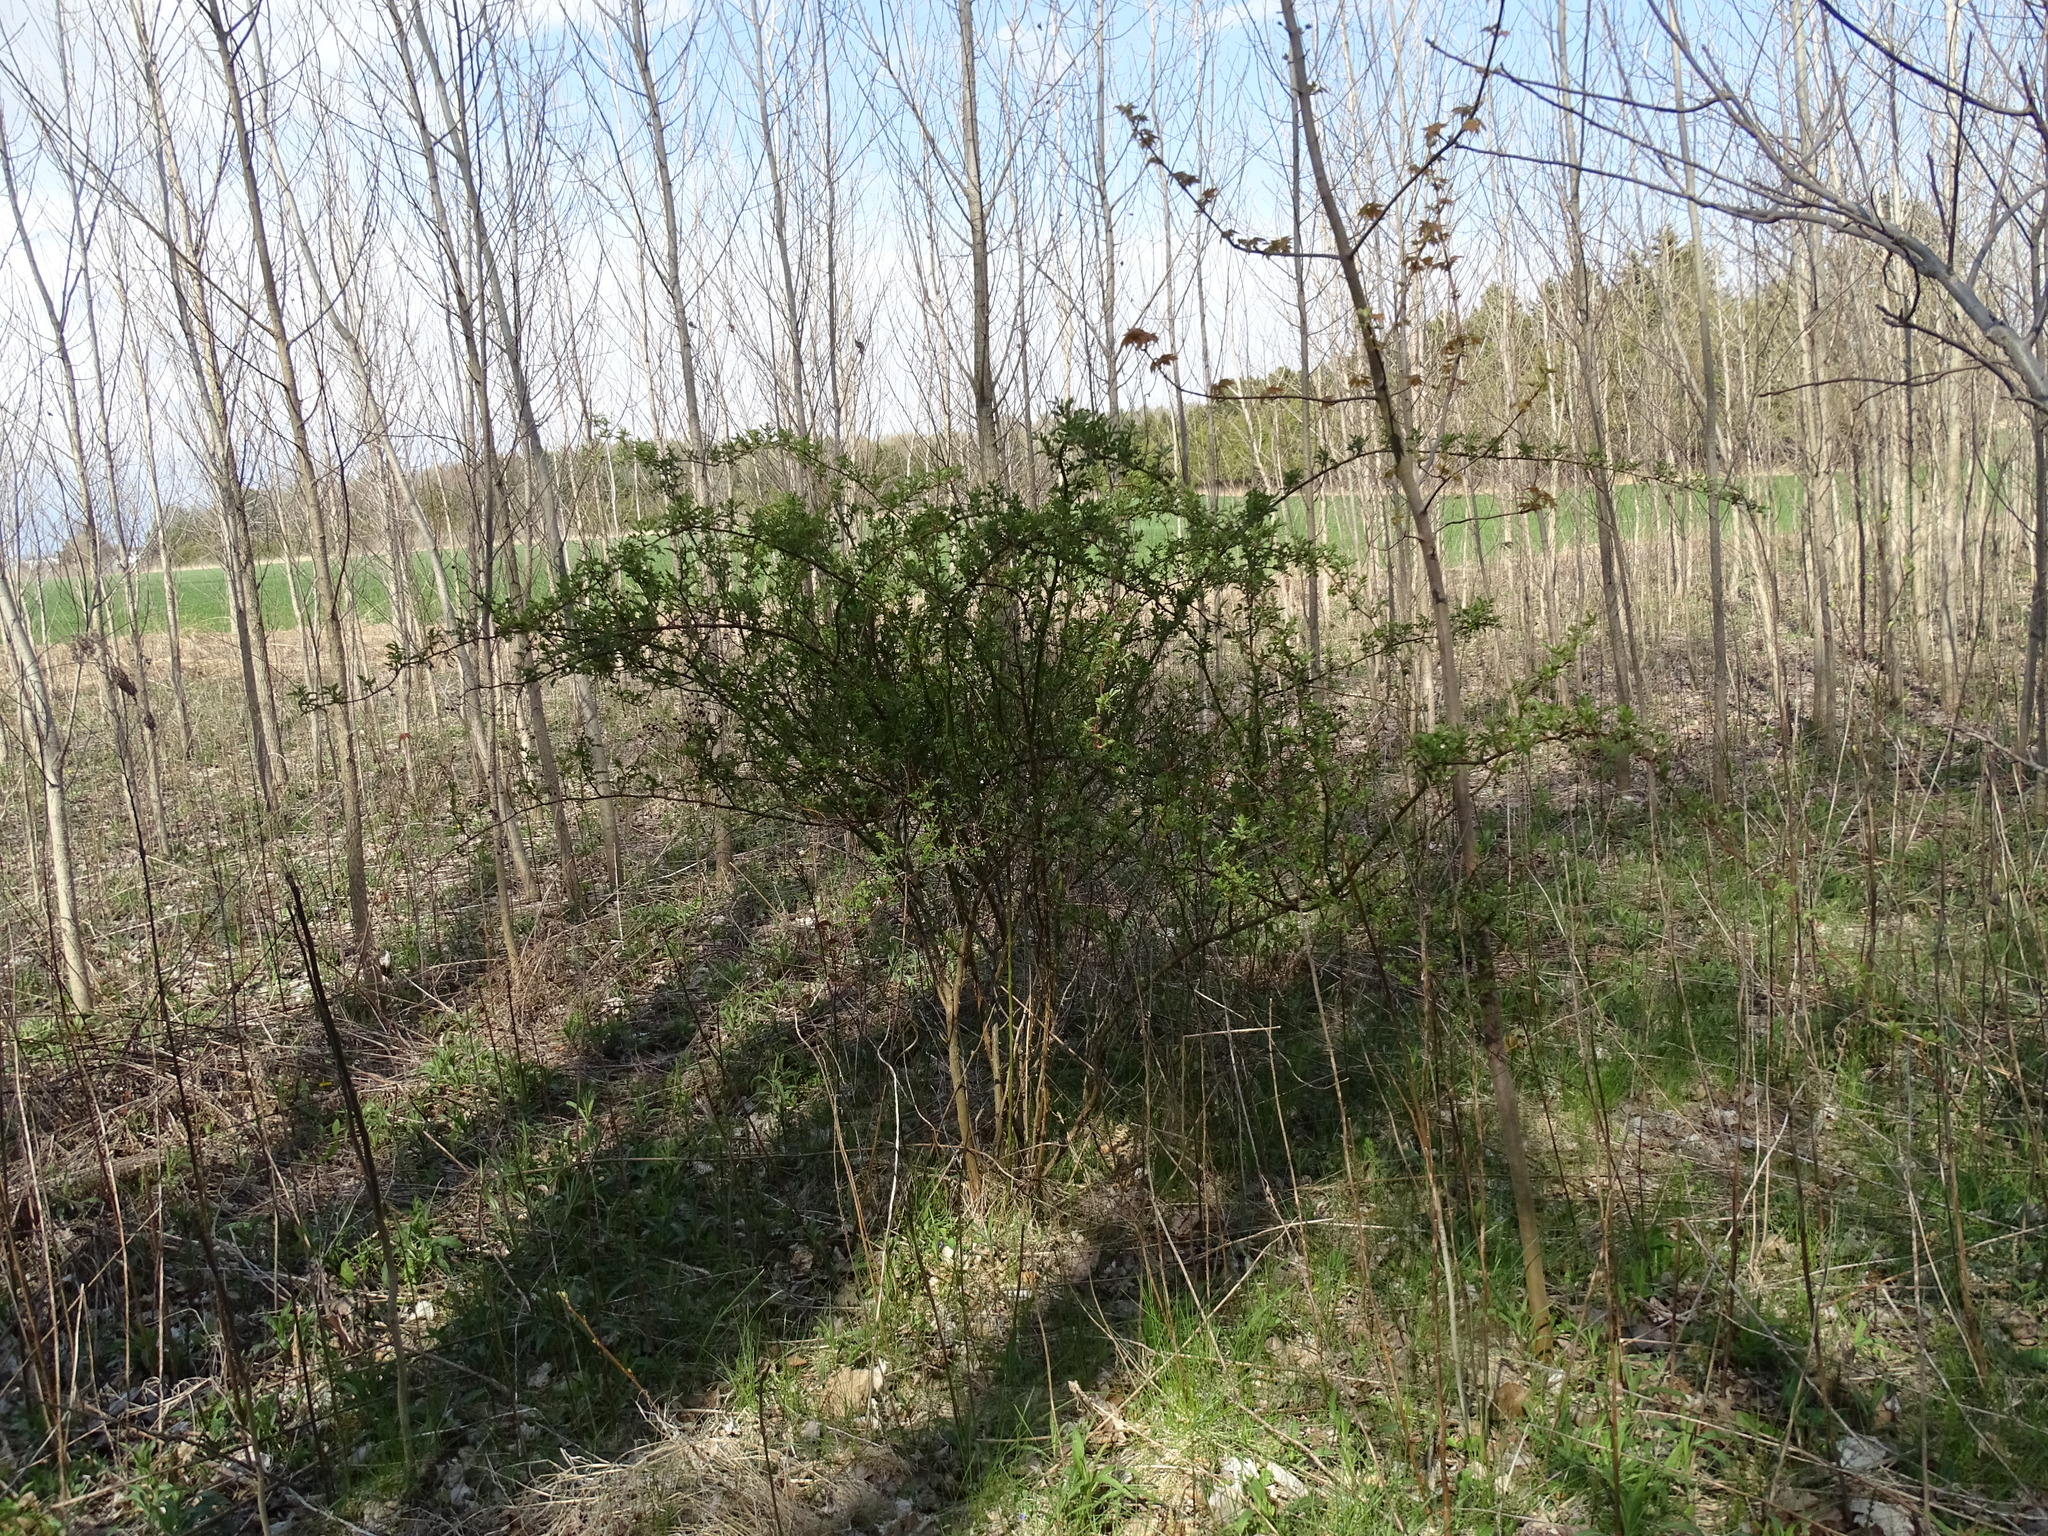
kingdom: Plantae
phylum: Tracheophyta
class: Magnoliopsida
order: Rosales
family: Rosaceae
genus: Rosa
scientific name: Rosa multiflora
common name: Multiflora rose
